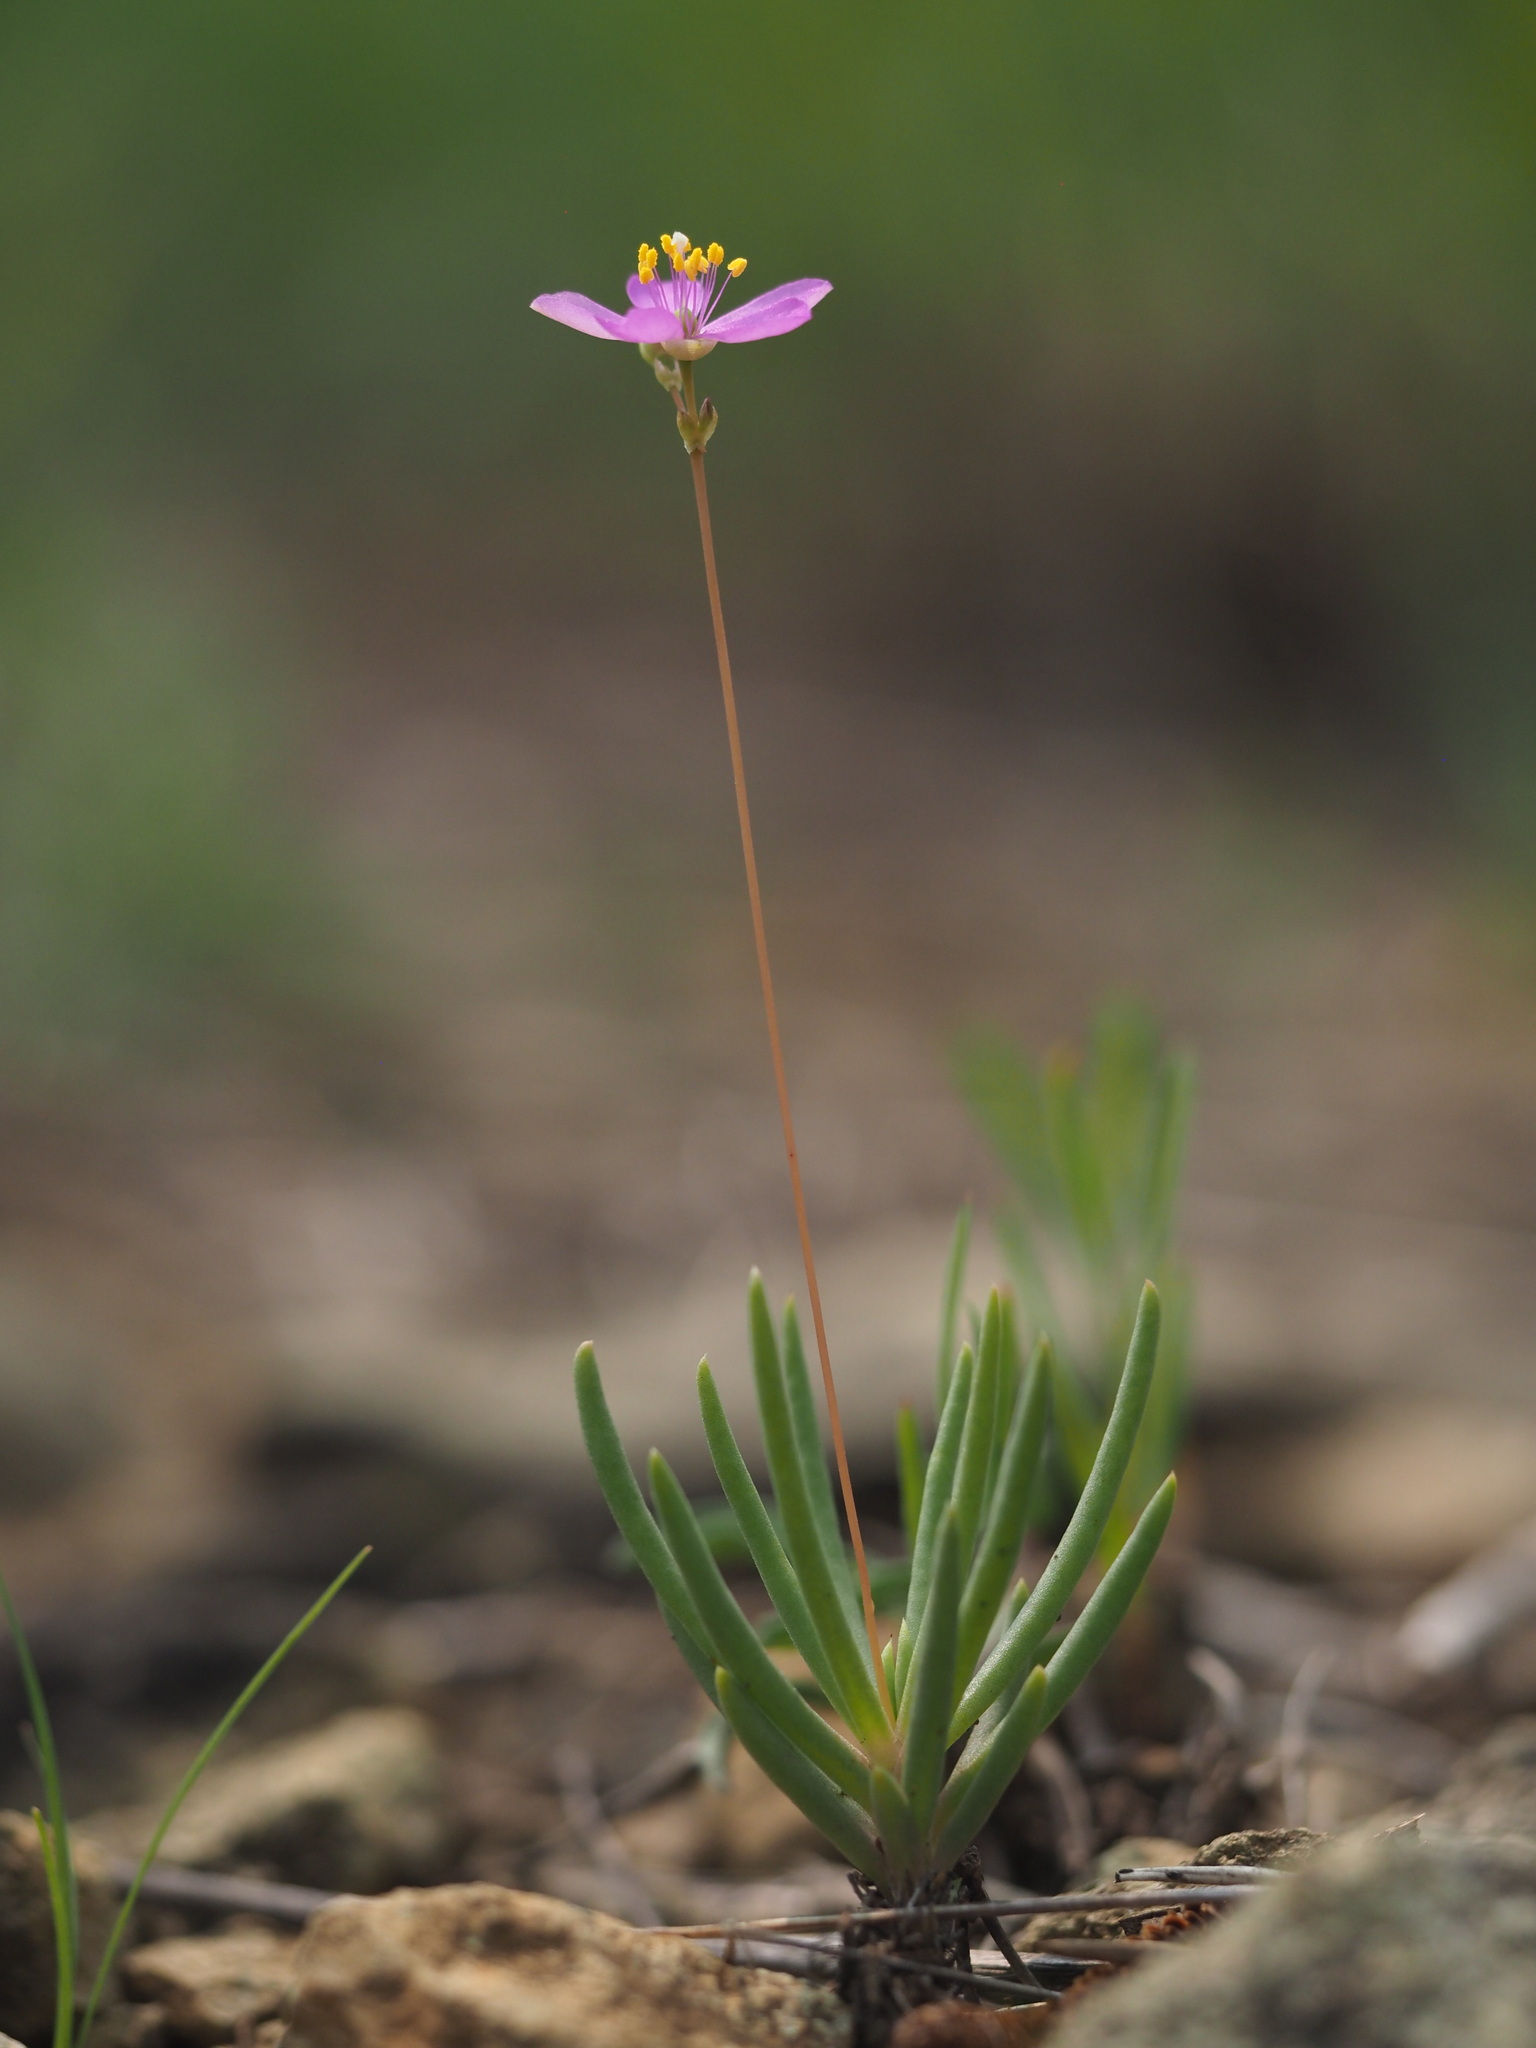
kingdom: Plantae
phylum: Tracheophyta
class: Magnoliopsida
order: Caryophyllales
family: Montiaceae
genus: Phemeranthus
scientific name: Phemeranthus teretifolius
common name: Quill fameflower
